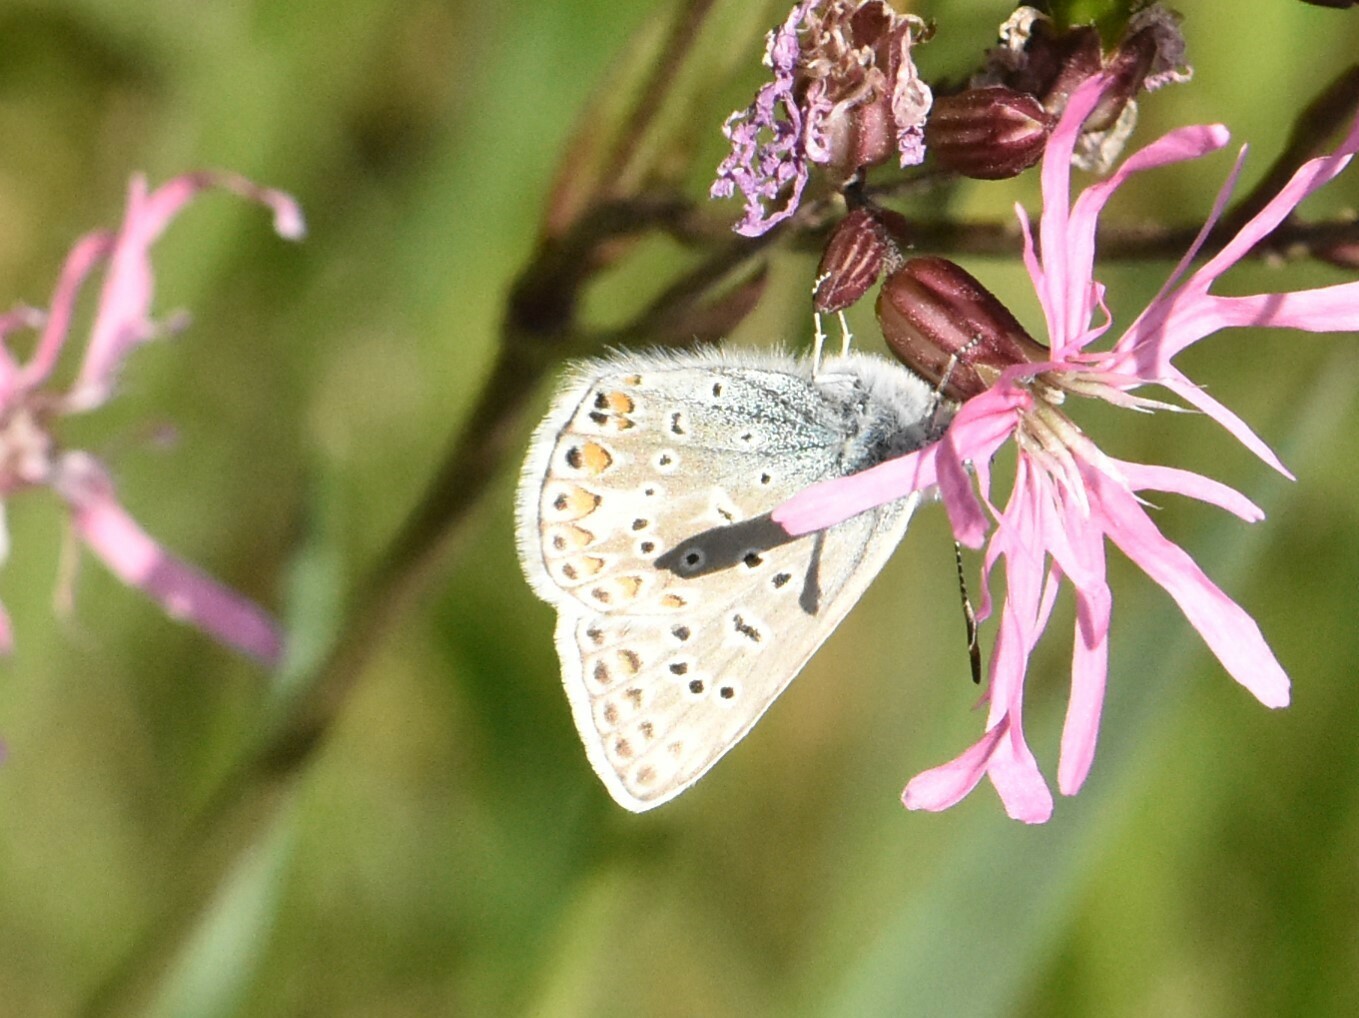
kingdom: Animalia
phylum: Arthropoda
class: Insecta
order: Lepidoptera
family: Lycaenidae
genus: Polyommatus
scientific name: Polyommatus icarus
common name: Common blue
